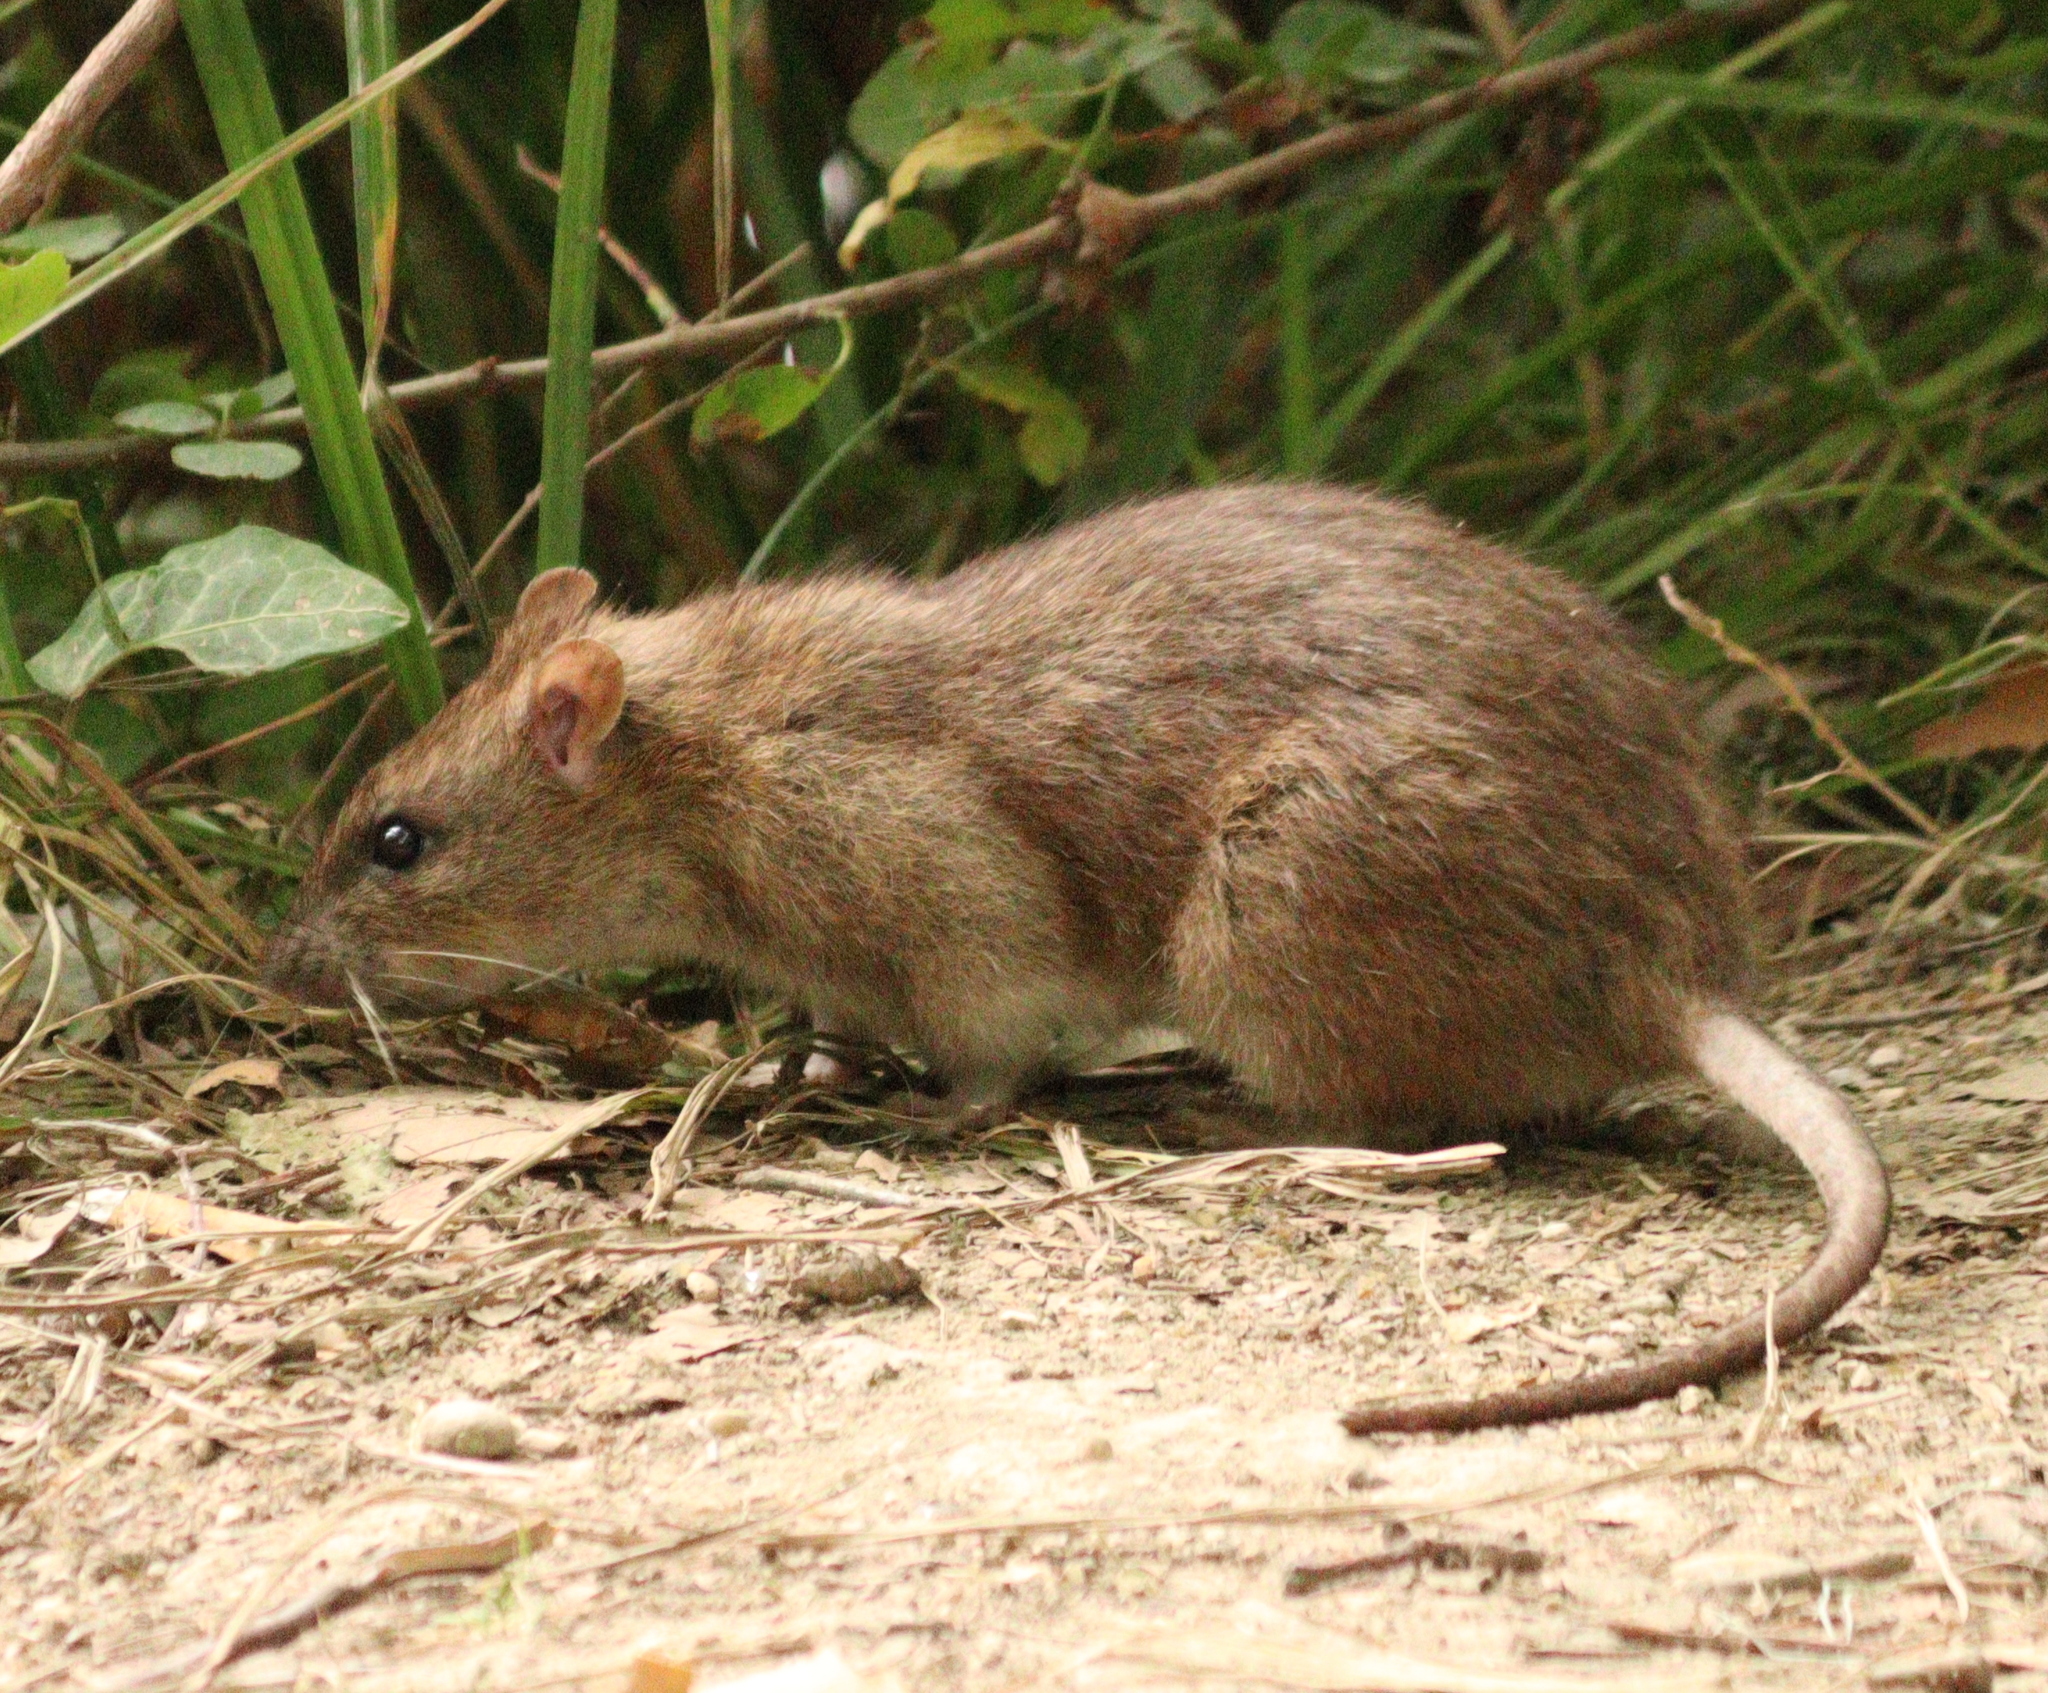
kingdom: Animalia
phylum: Chordata
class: Mammalia
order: Rodentia
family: Muridae
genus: Rattus
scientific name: Rattus norvegicus
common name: Brown rat
